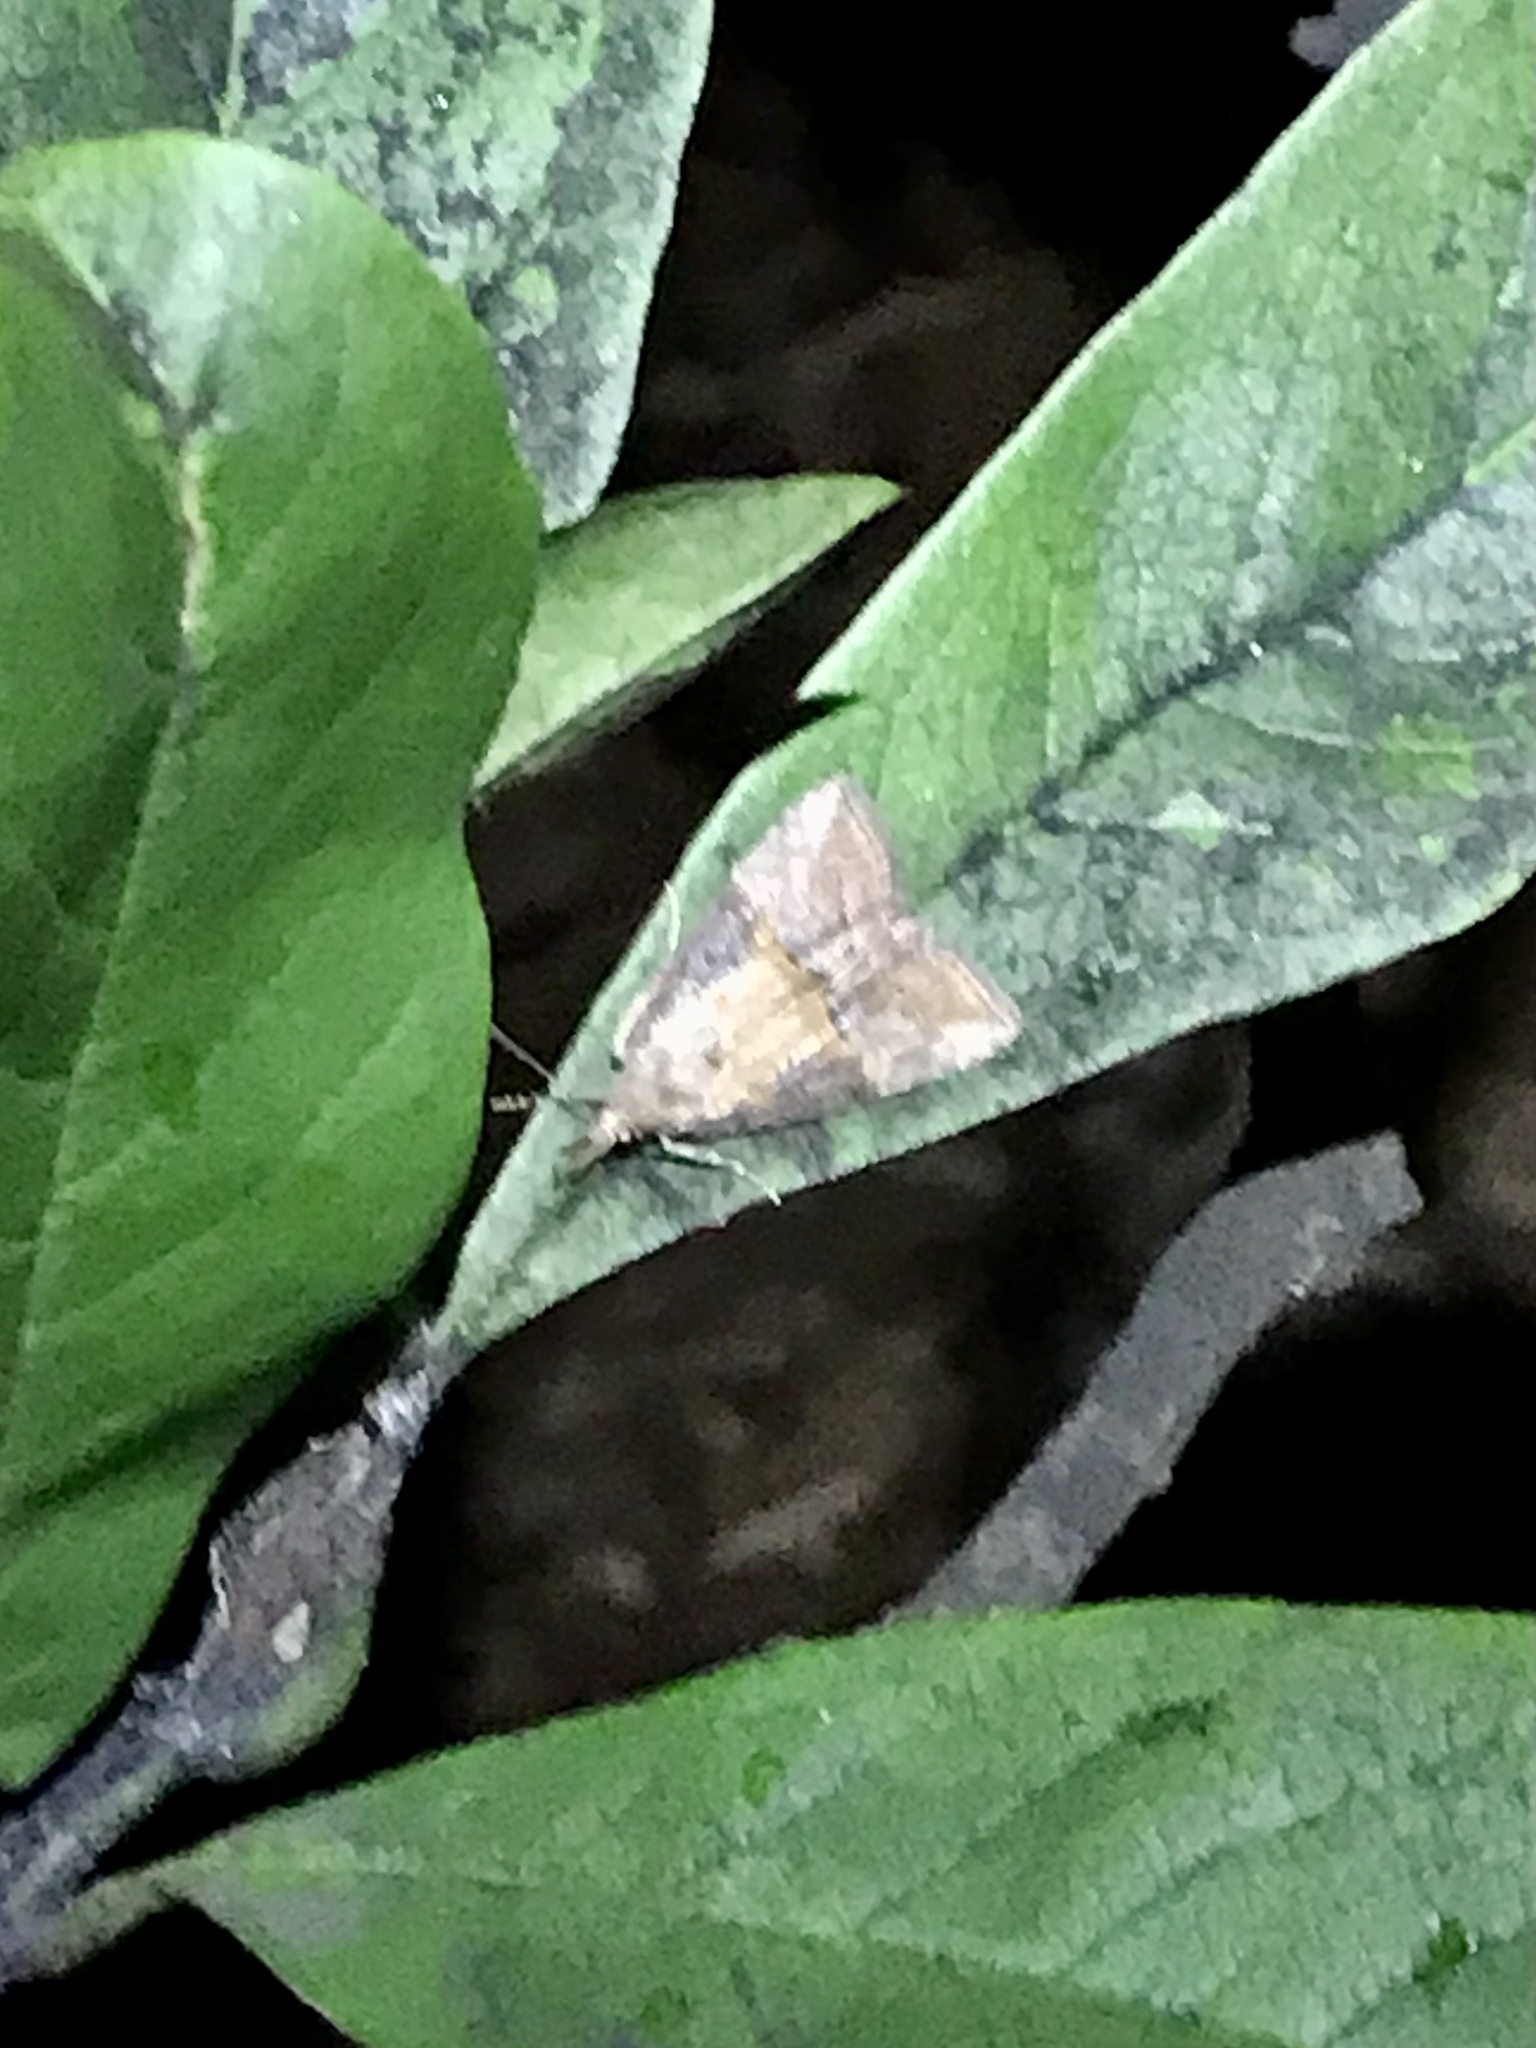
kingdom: Animalia
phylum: Arthropoda
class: Insecta
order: Lepidoptera
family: Erebidae
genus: Hypena
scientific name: Hypena scabra
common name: Green cloverworm
